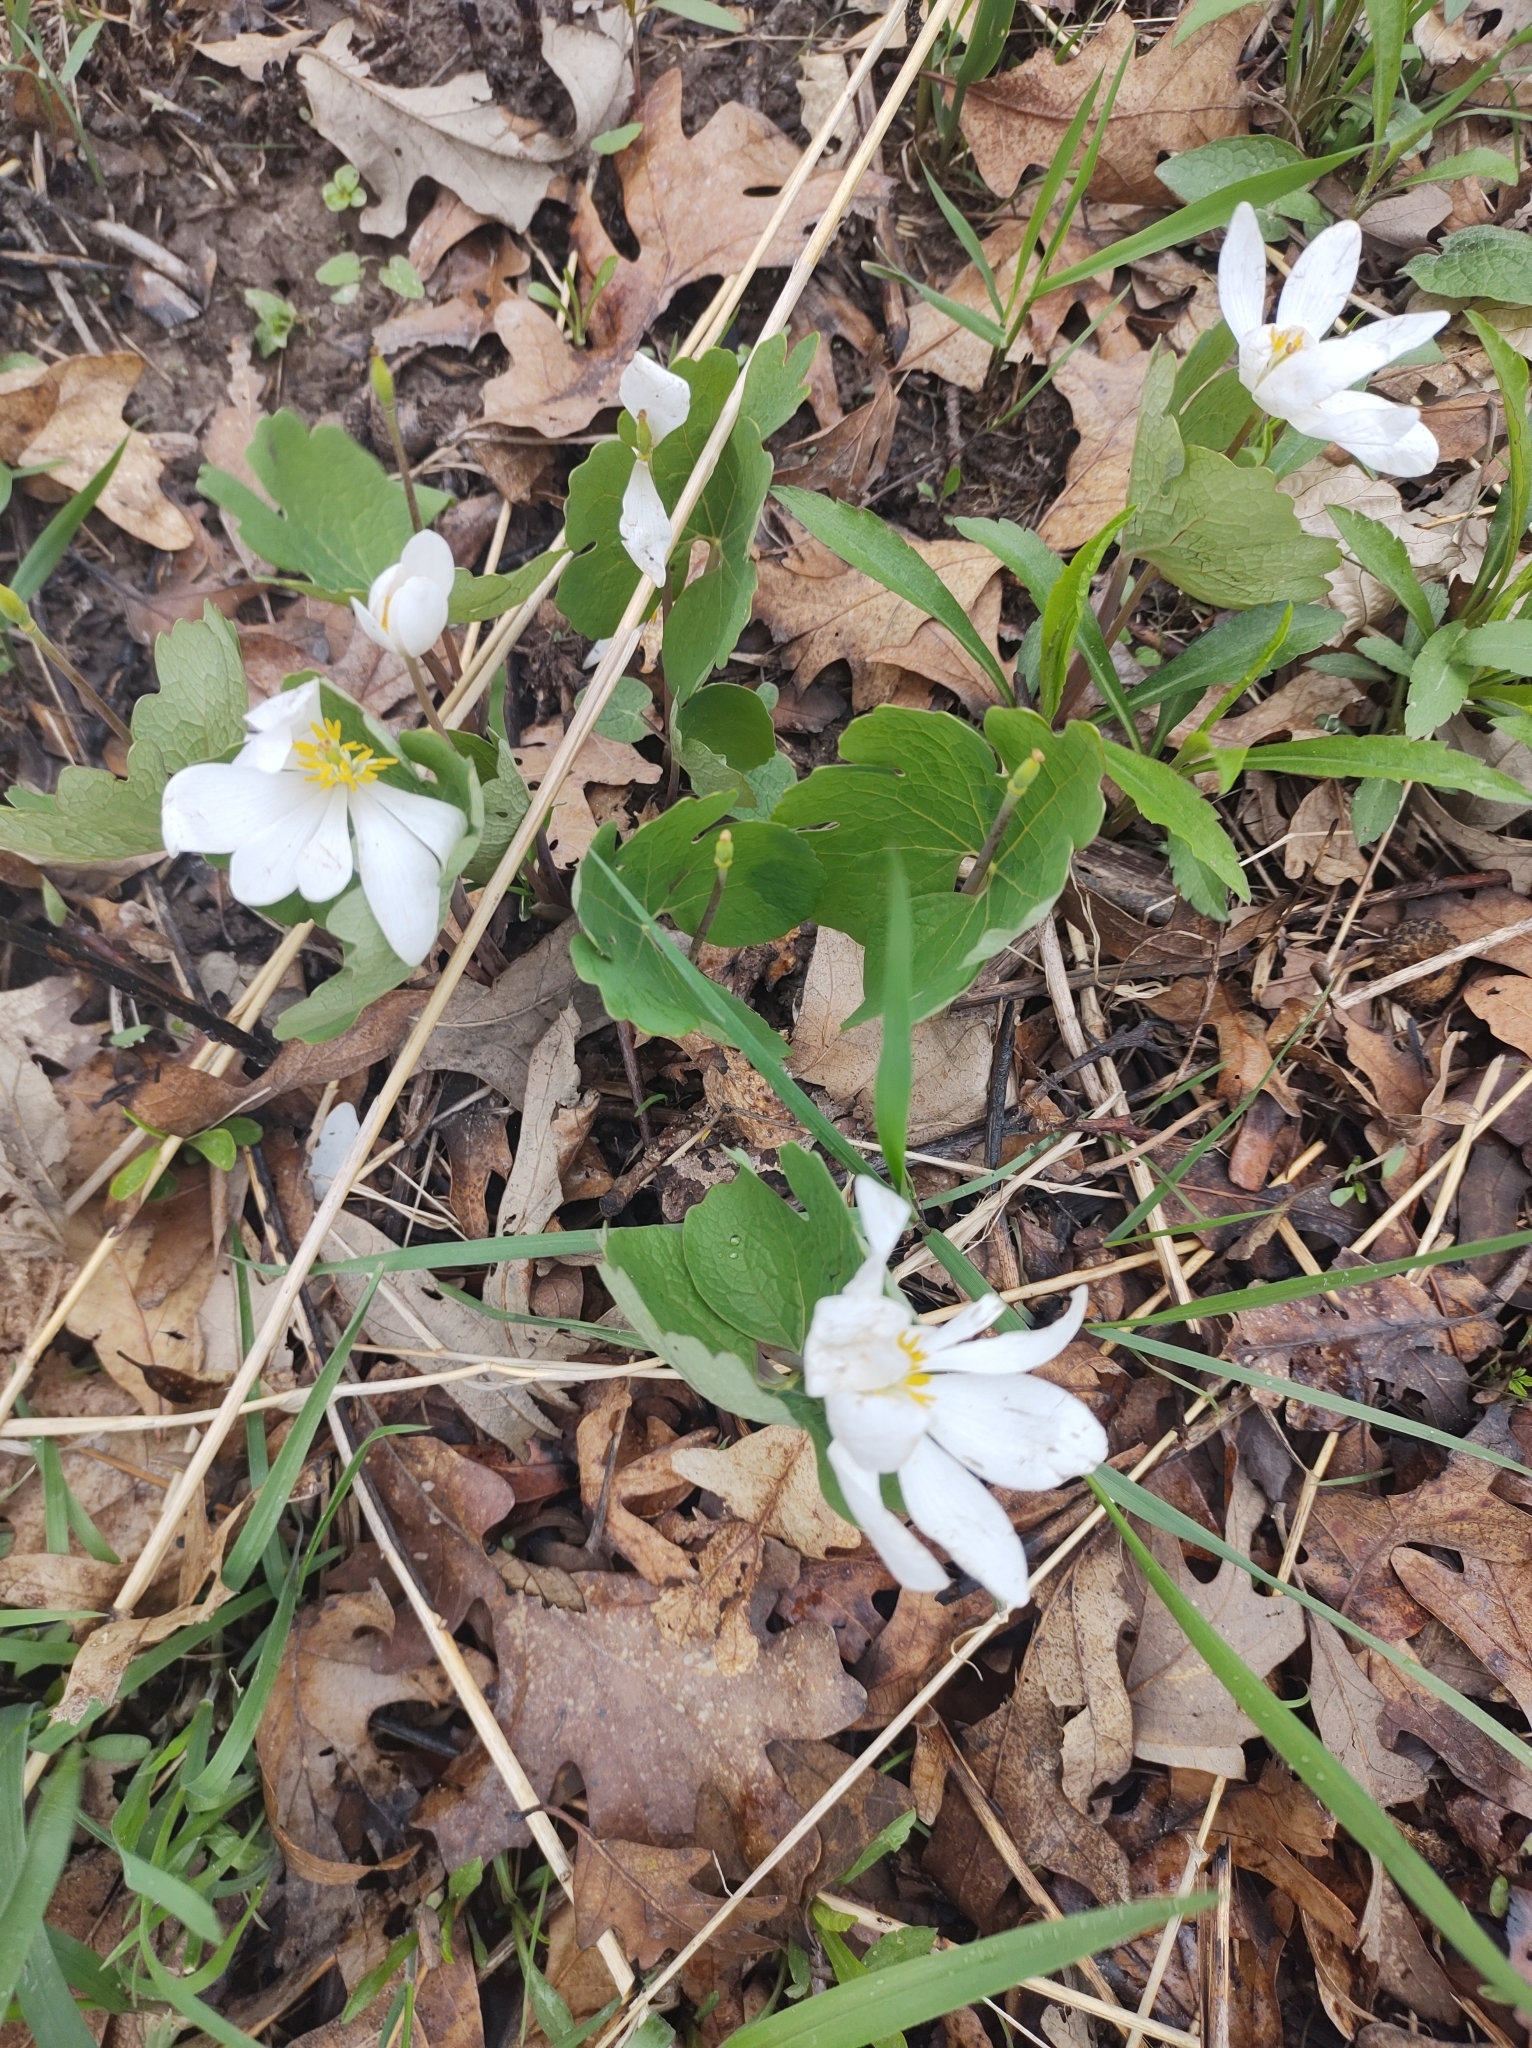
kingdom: Plantae
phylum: Tracheophyta
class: Magnoliopsida
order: Ranunculales
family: Papaveraceae
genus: Sanguinaria
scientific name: Sanguinaria canadensis
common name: Bloodroot
